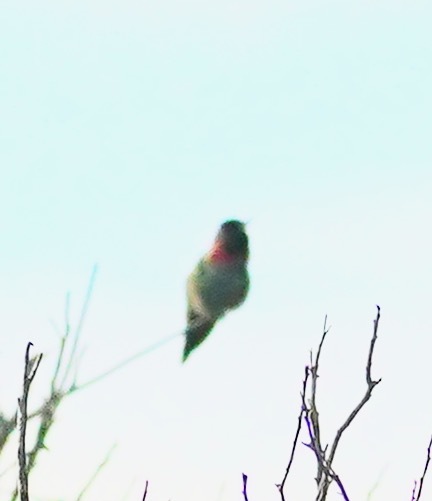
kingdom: Animalia
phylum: Chordata
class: Aves
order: Apodiformes
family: Trochilidae
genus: Calypte
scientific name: Calypte anna
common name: Anna's hummingbird
